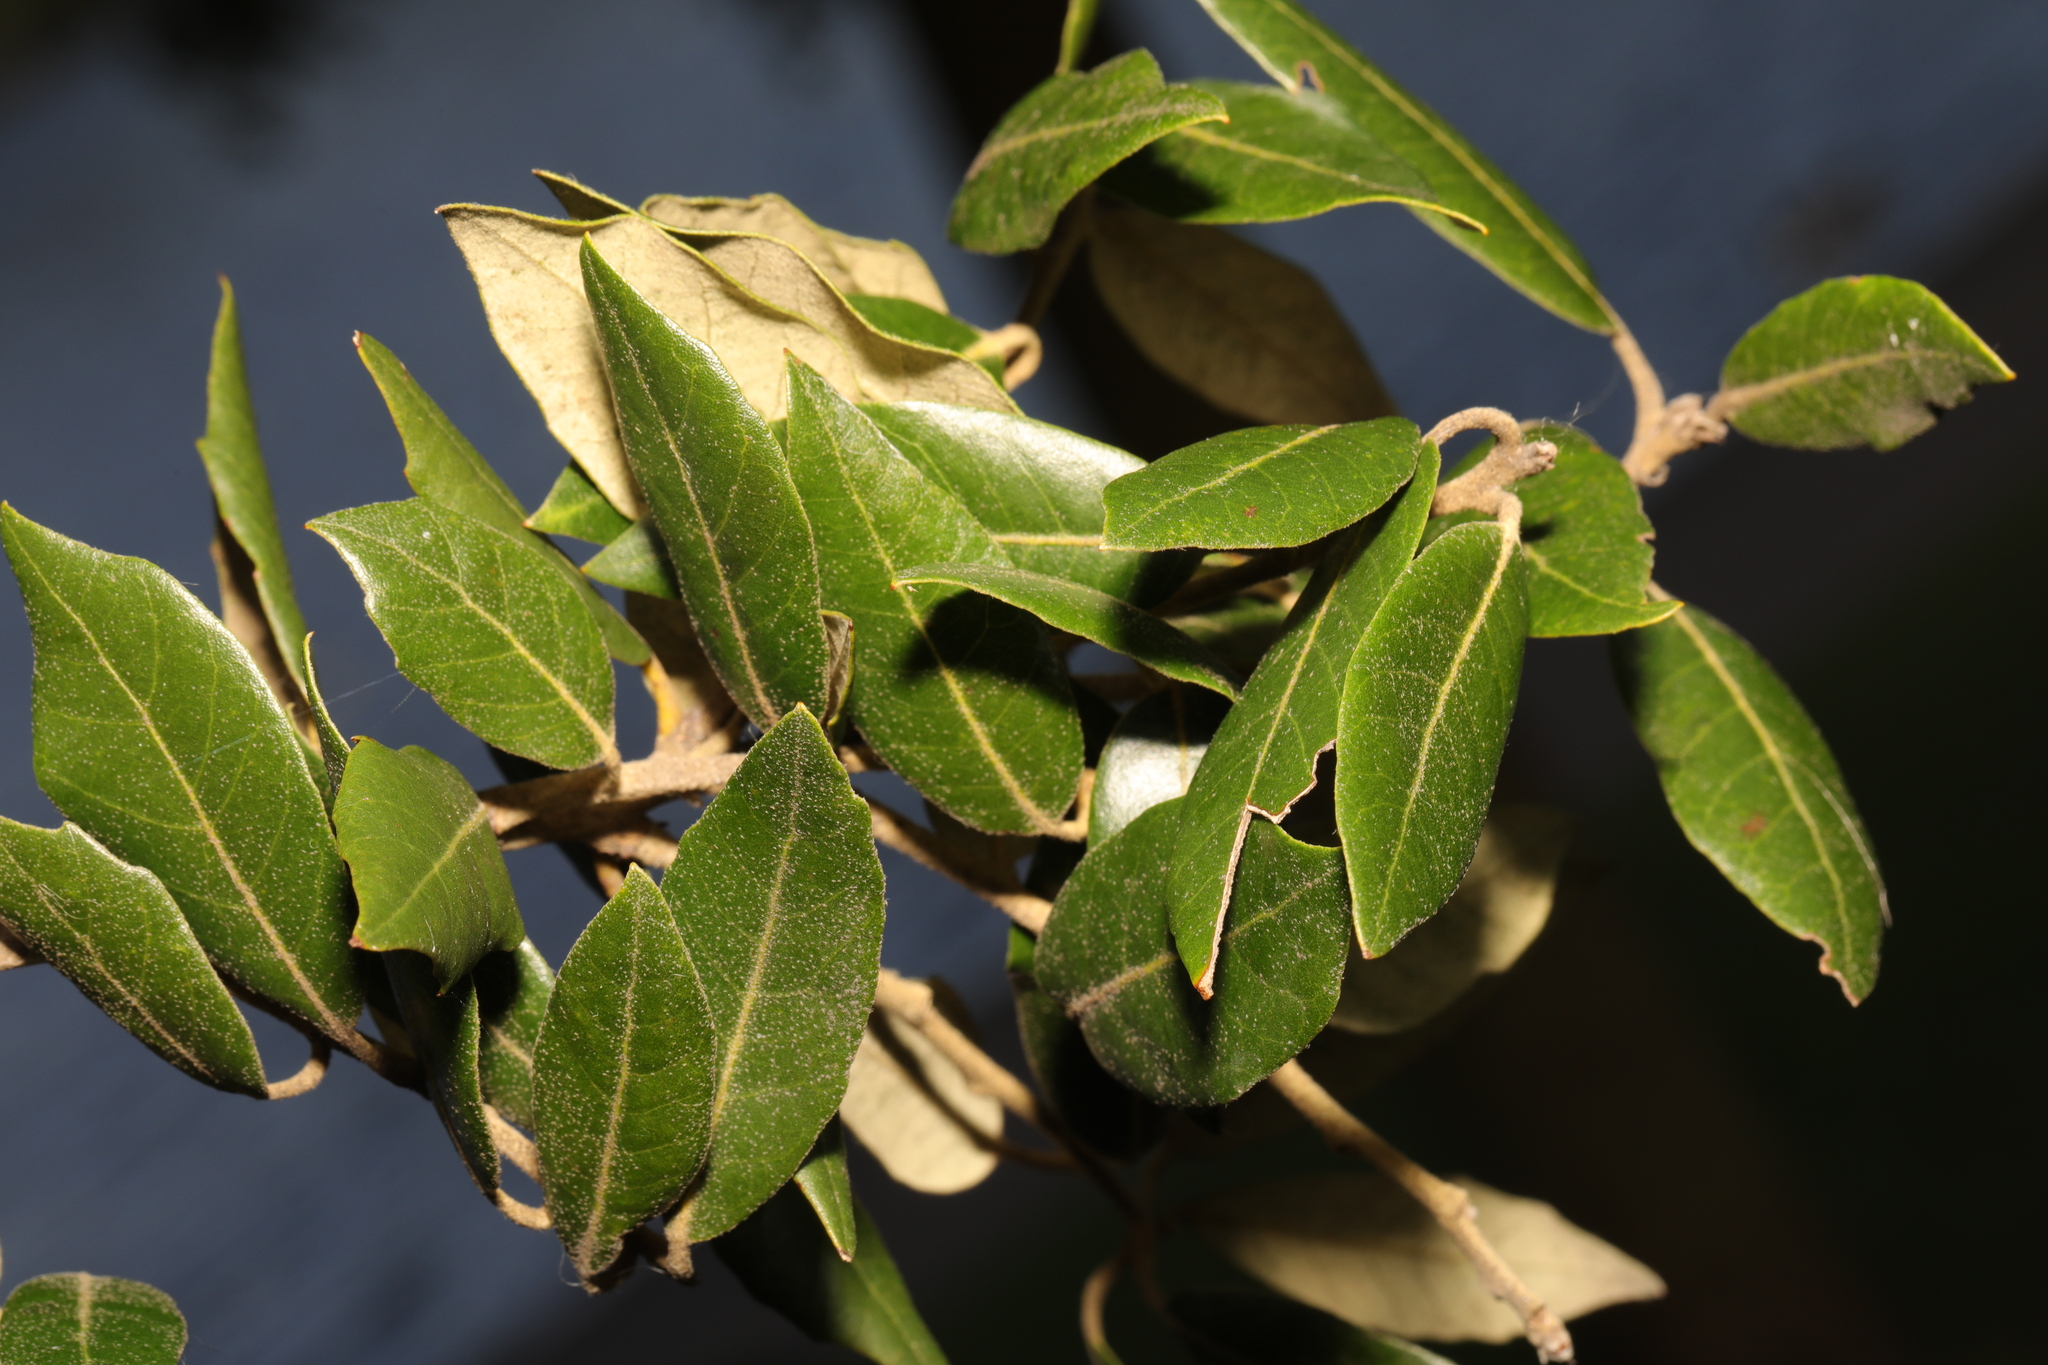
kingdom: Plantae
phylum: Tracheophyta
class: Magnoliopsida
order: Fagales
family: Fagaceae
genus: Quercus
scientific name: Quercus ilex
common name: Evergreen oak
